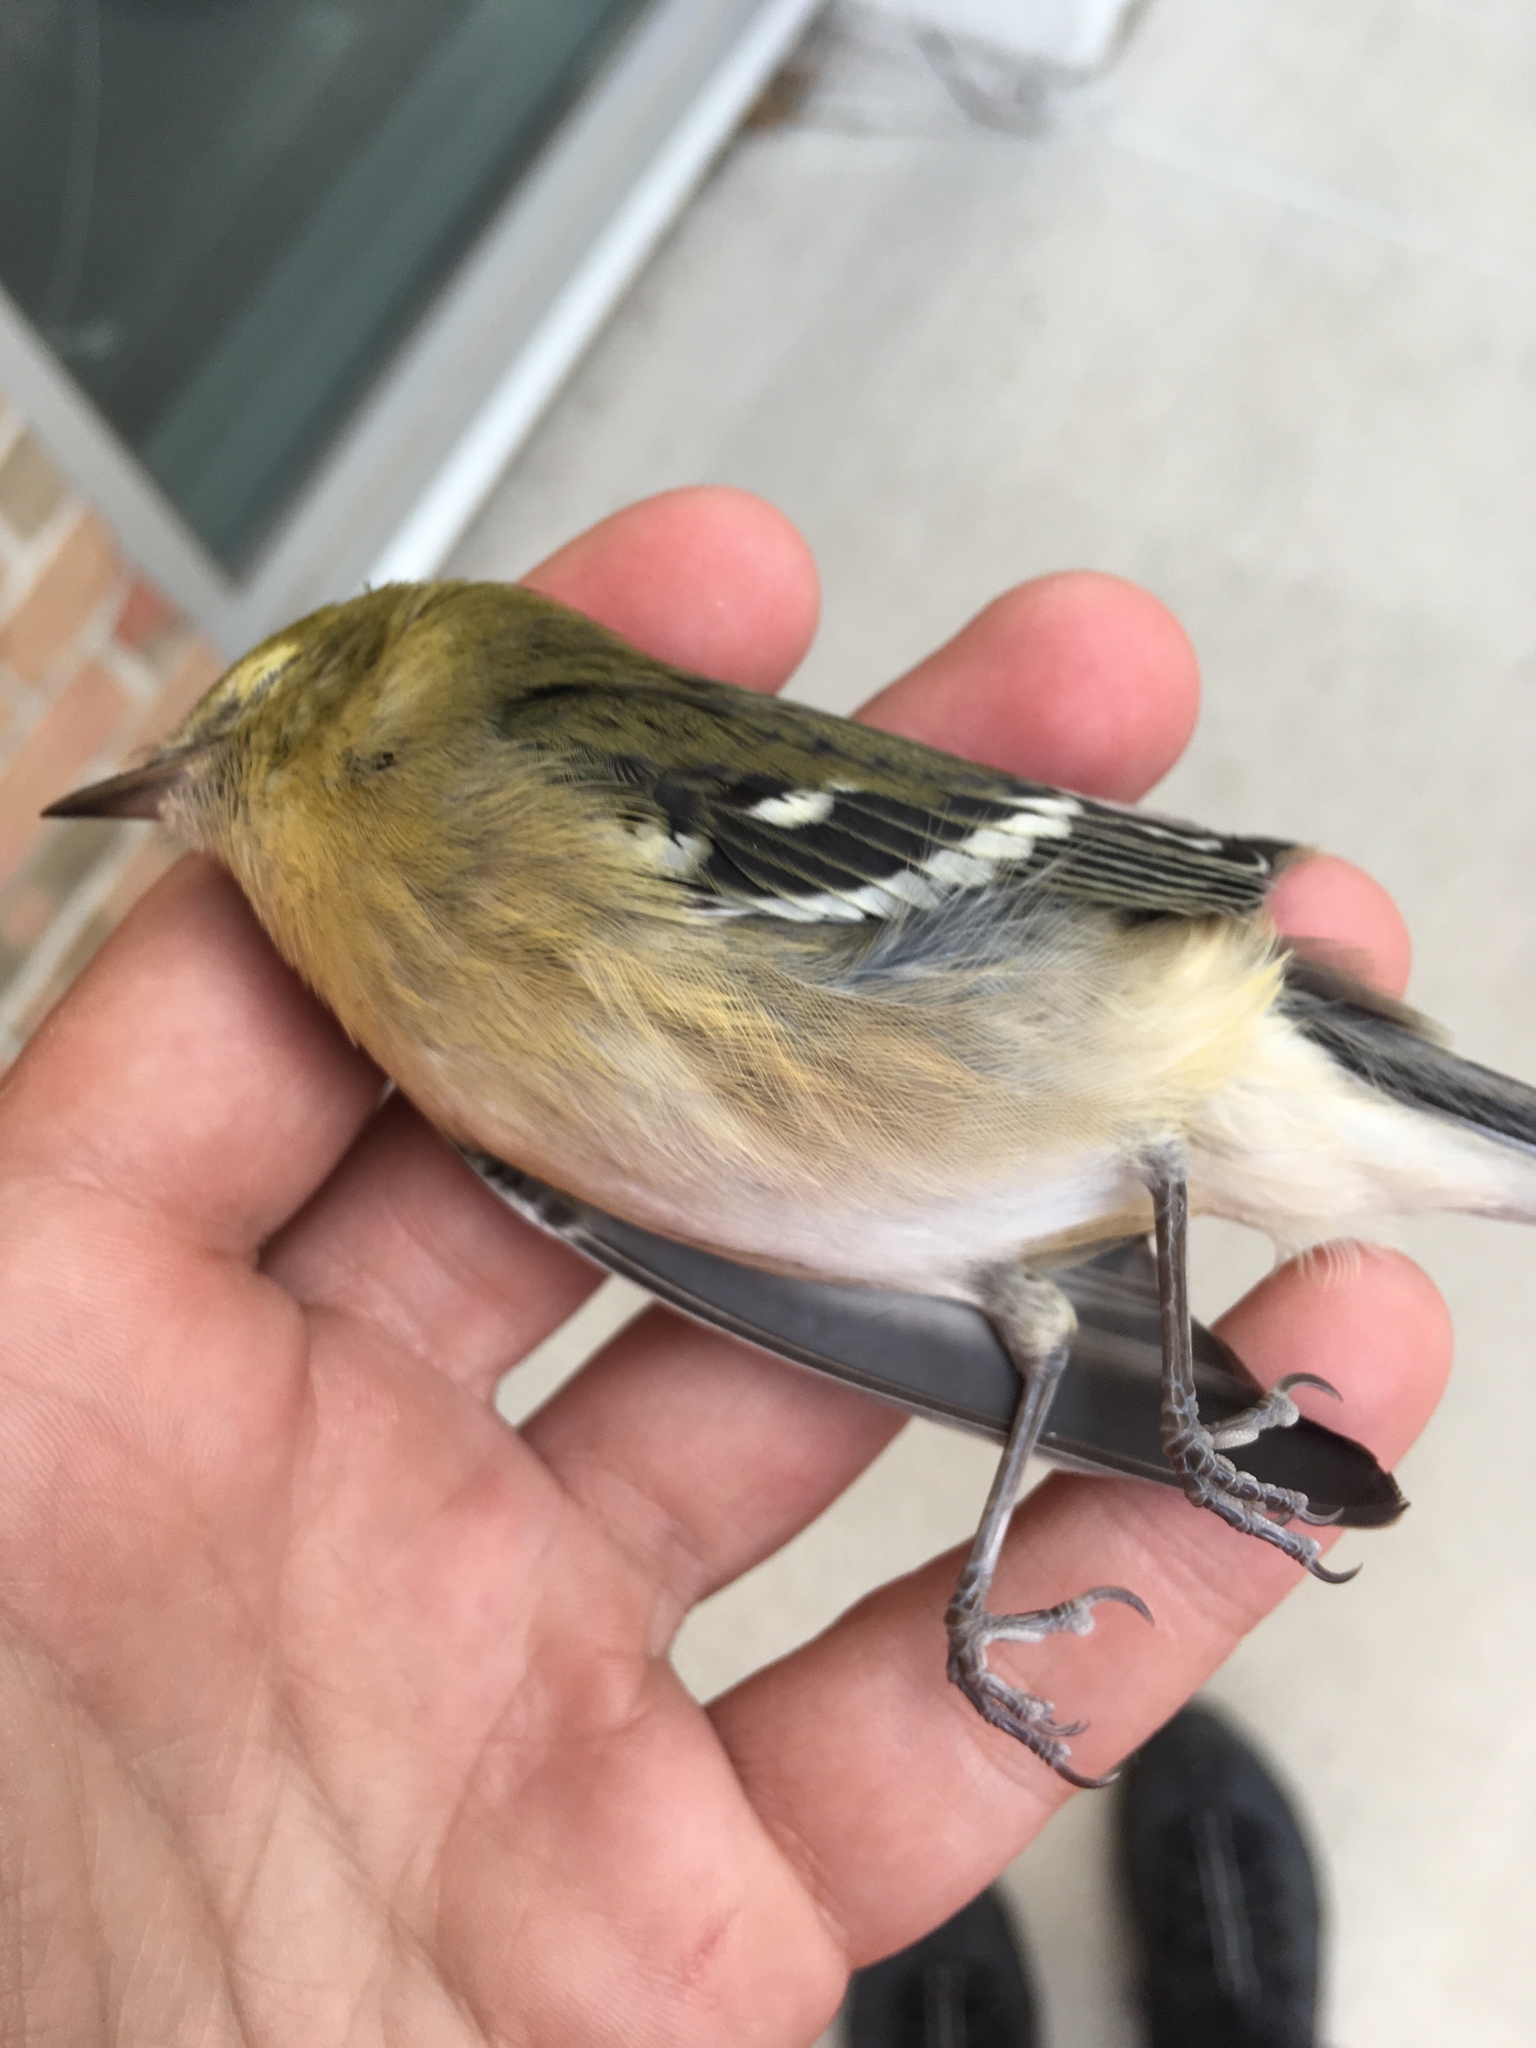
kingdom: Animalia
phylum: Chordata
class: Aves
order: Passeriformes
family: Parulidae
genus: Setophaga
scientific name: Setophaga castanea
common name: Bay-breasted warbler
